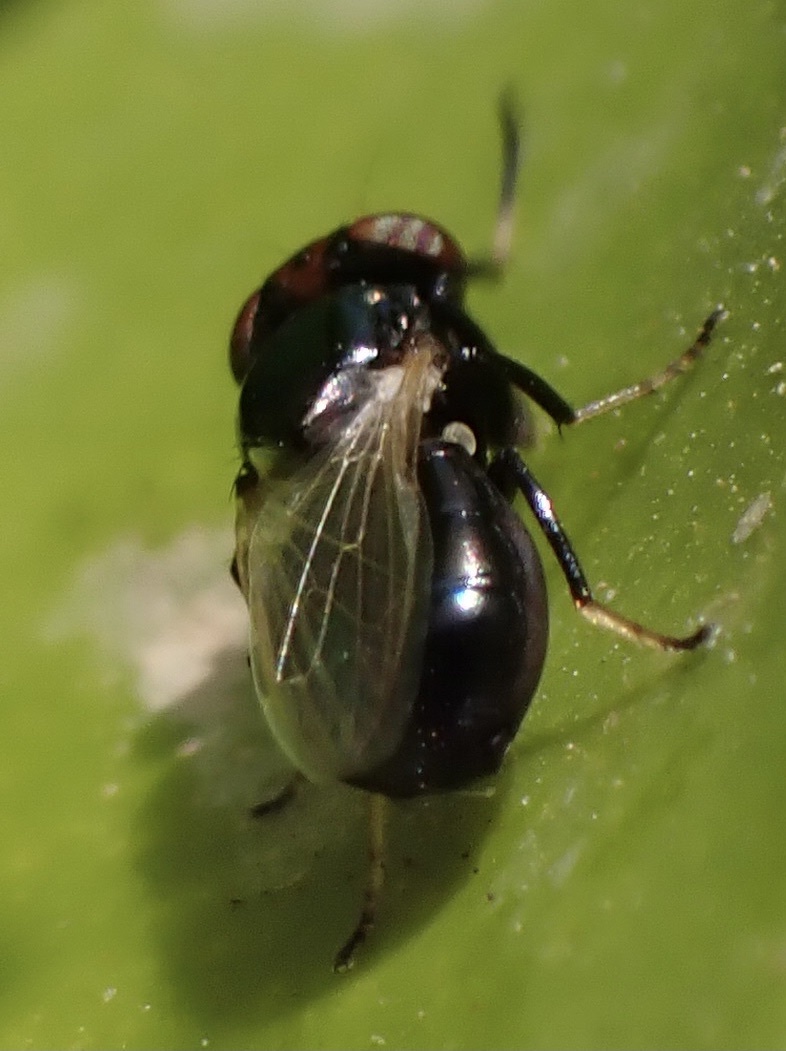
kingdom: Animalia
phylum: Arthropoda
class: Insecta
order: Diptera
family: Ulidiidae
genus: Physiphora
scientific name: Physiphora alceae
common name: Picture-winged fly
